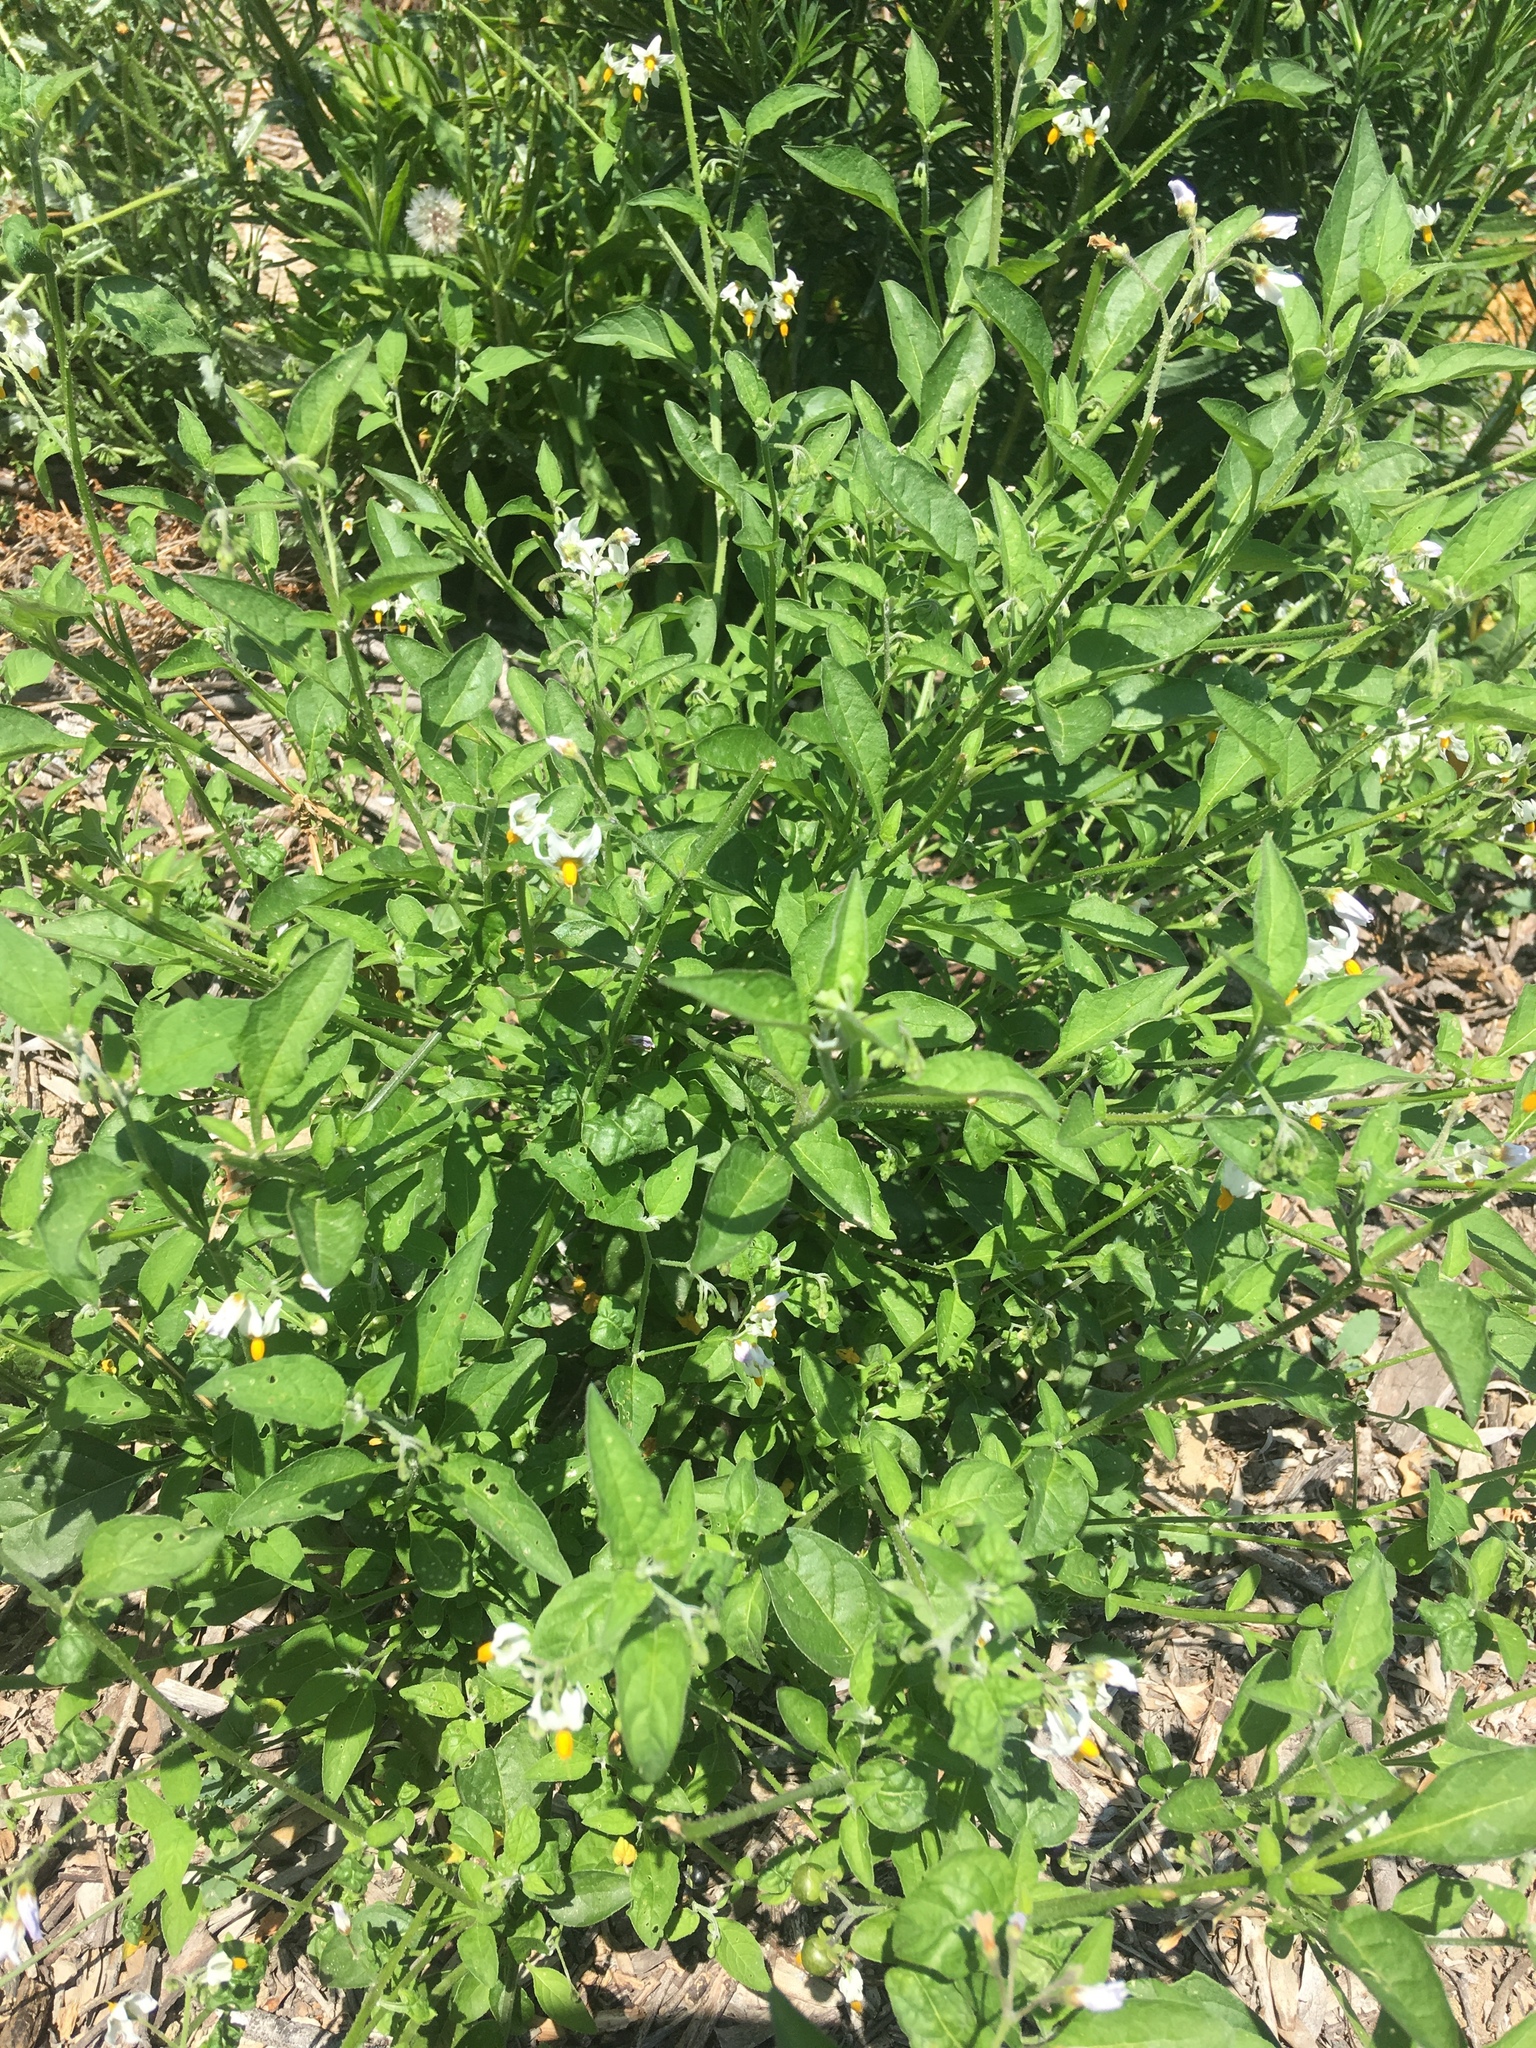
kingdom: Plantae
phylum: Tracheophyta
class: Magnoliopsida
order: Solanales
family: Solanaceae
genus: Solanum
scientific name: Solanum douglasii
